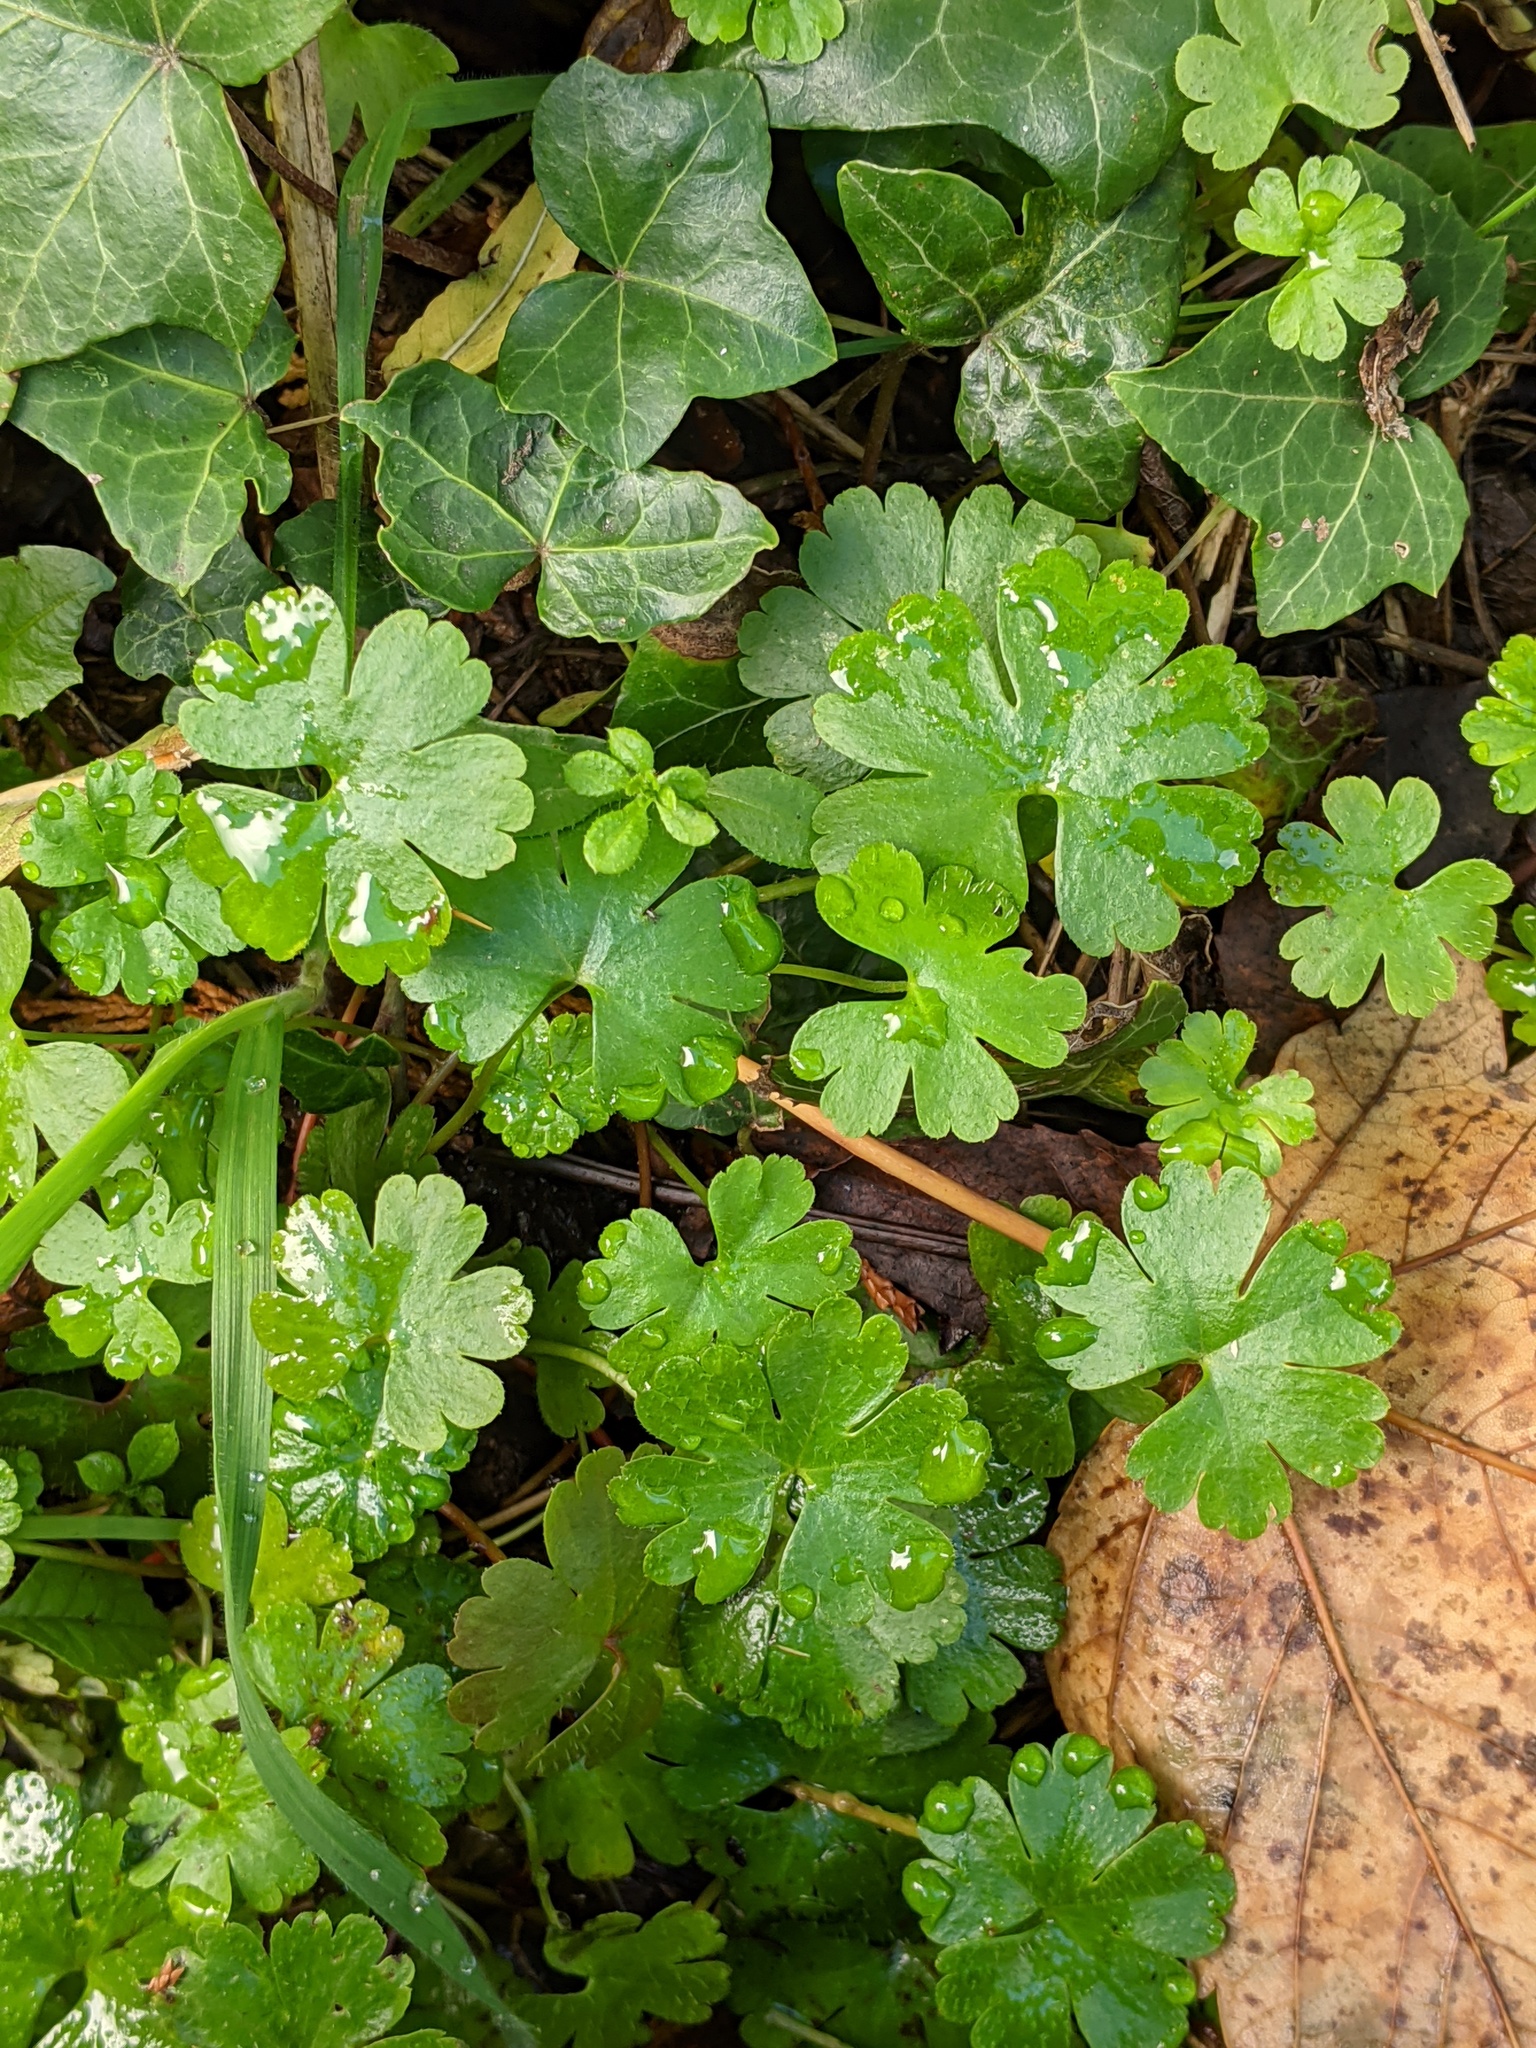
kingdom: Plantae
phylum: Tracheophyta
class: Magnoliopsida
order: Geraniales
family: Geraniaceae
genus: Geranium
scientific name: Geranium lucidum
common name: Shining crane's-bill
